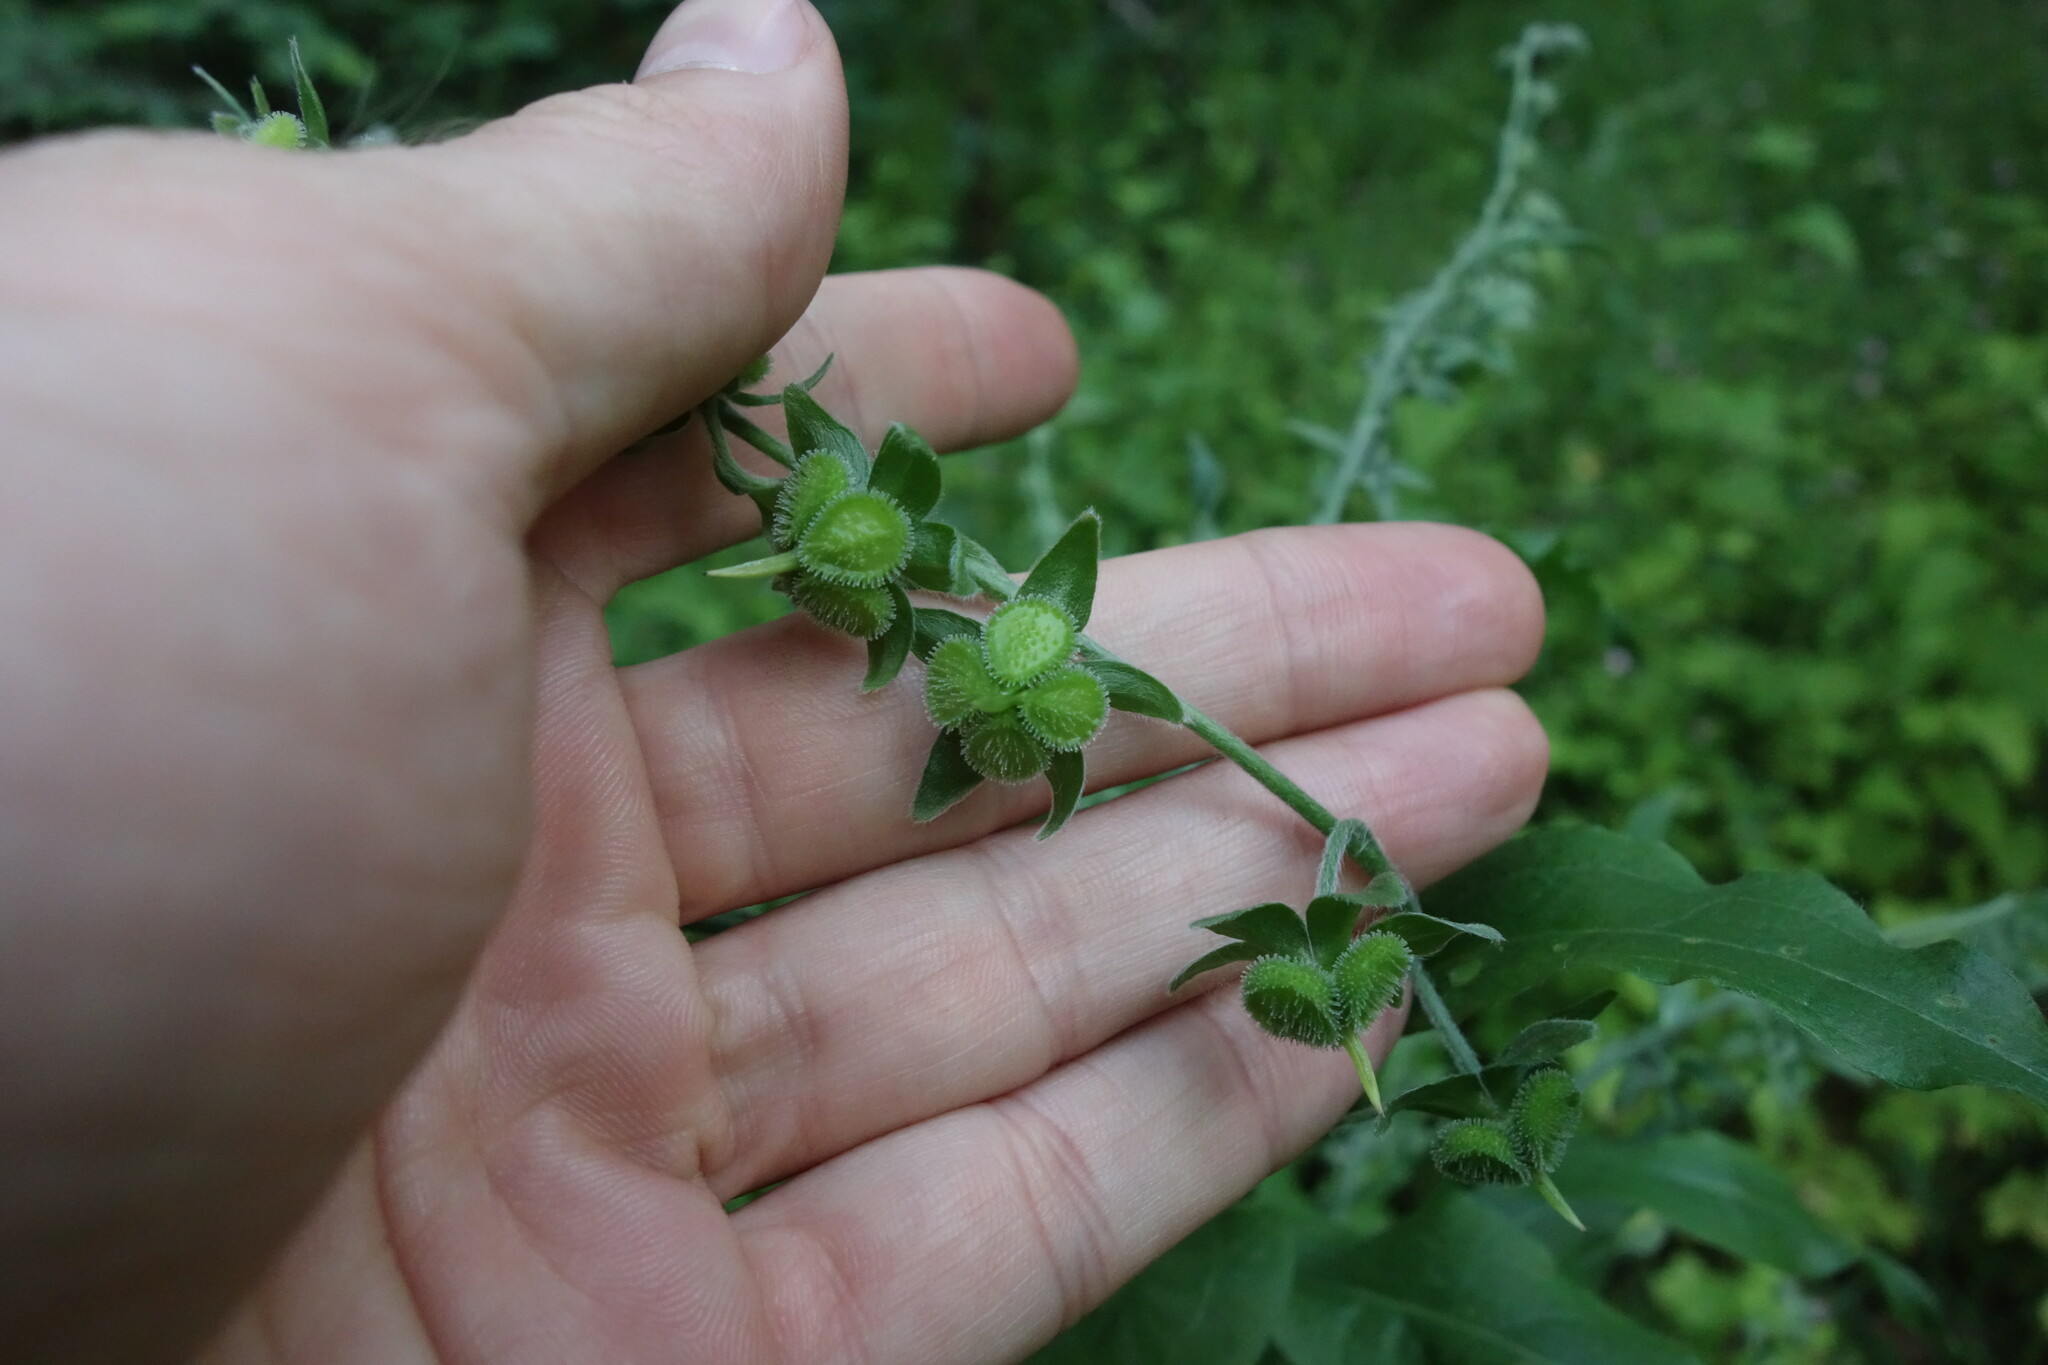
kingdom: Plantae
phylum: Tracheophyta
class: Magnoliopsida
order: Boraginales
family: Boraginaceae
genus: Cynoglossum
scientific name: Cynoglossum officinale
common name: Hound's-tongue
